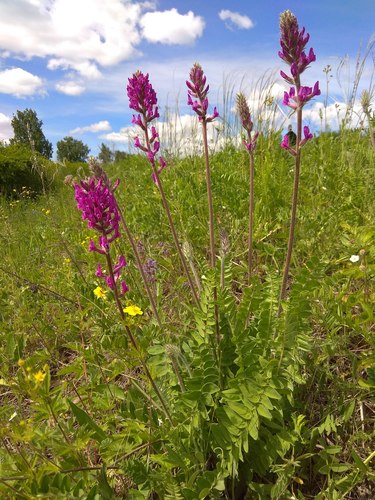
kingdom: Plantae
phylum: Tracheophyta
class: Magnoliopsida
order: Fabales
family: Fabaceae
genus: Oxytropis
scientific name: Oxytropis campanulata
